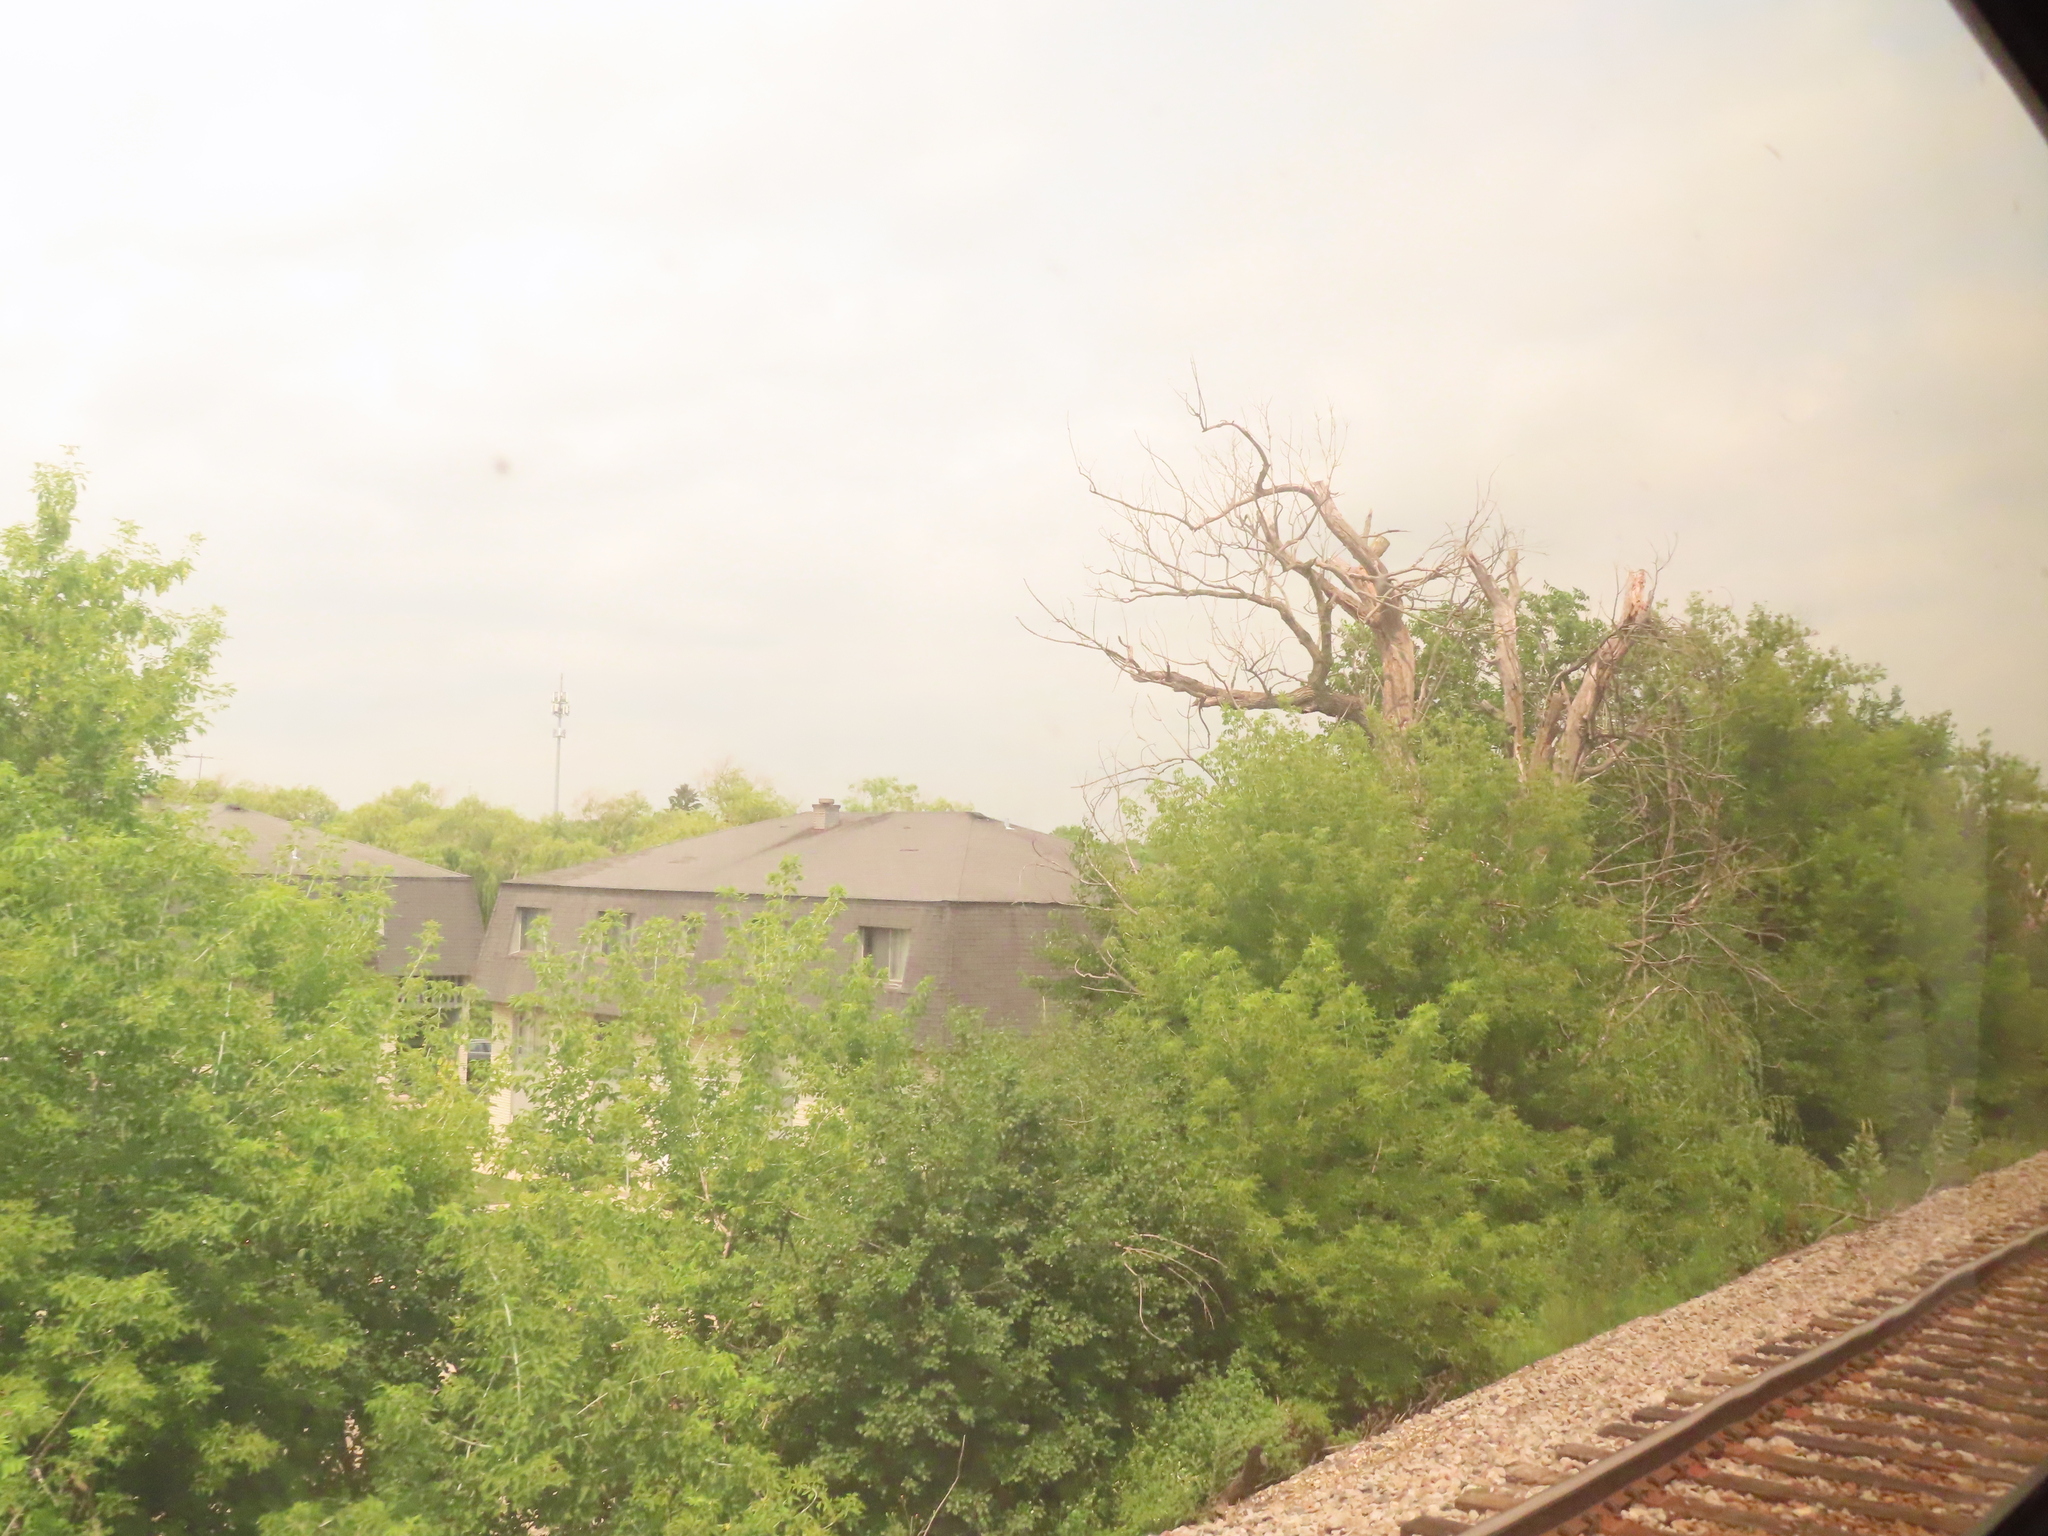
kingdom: Plantae
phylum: Tracheophyta
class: Magnoliopsida
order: Sapindales
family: Sapindaceae
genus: Acer
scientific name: Acer negundo
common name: Ashleaf maple
